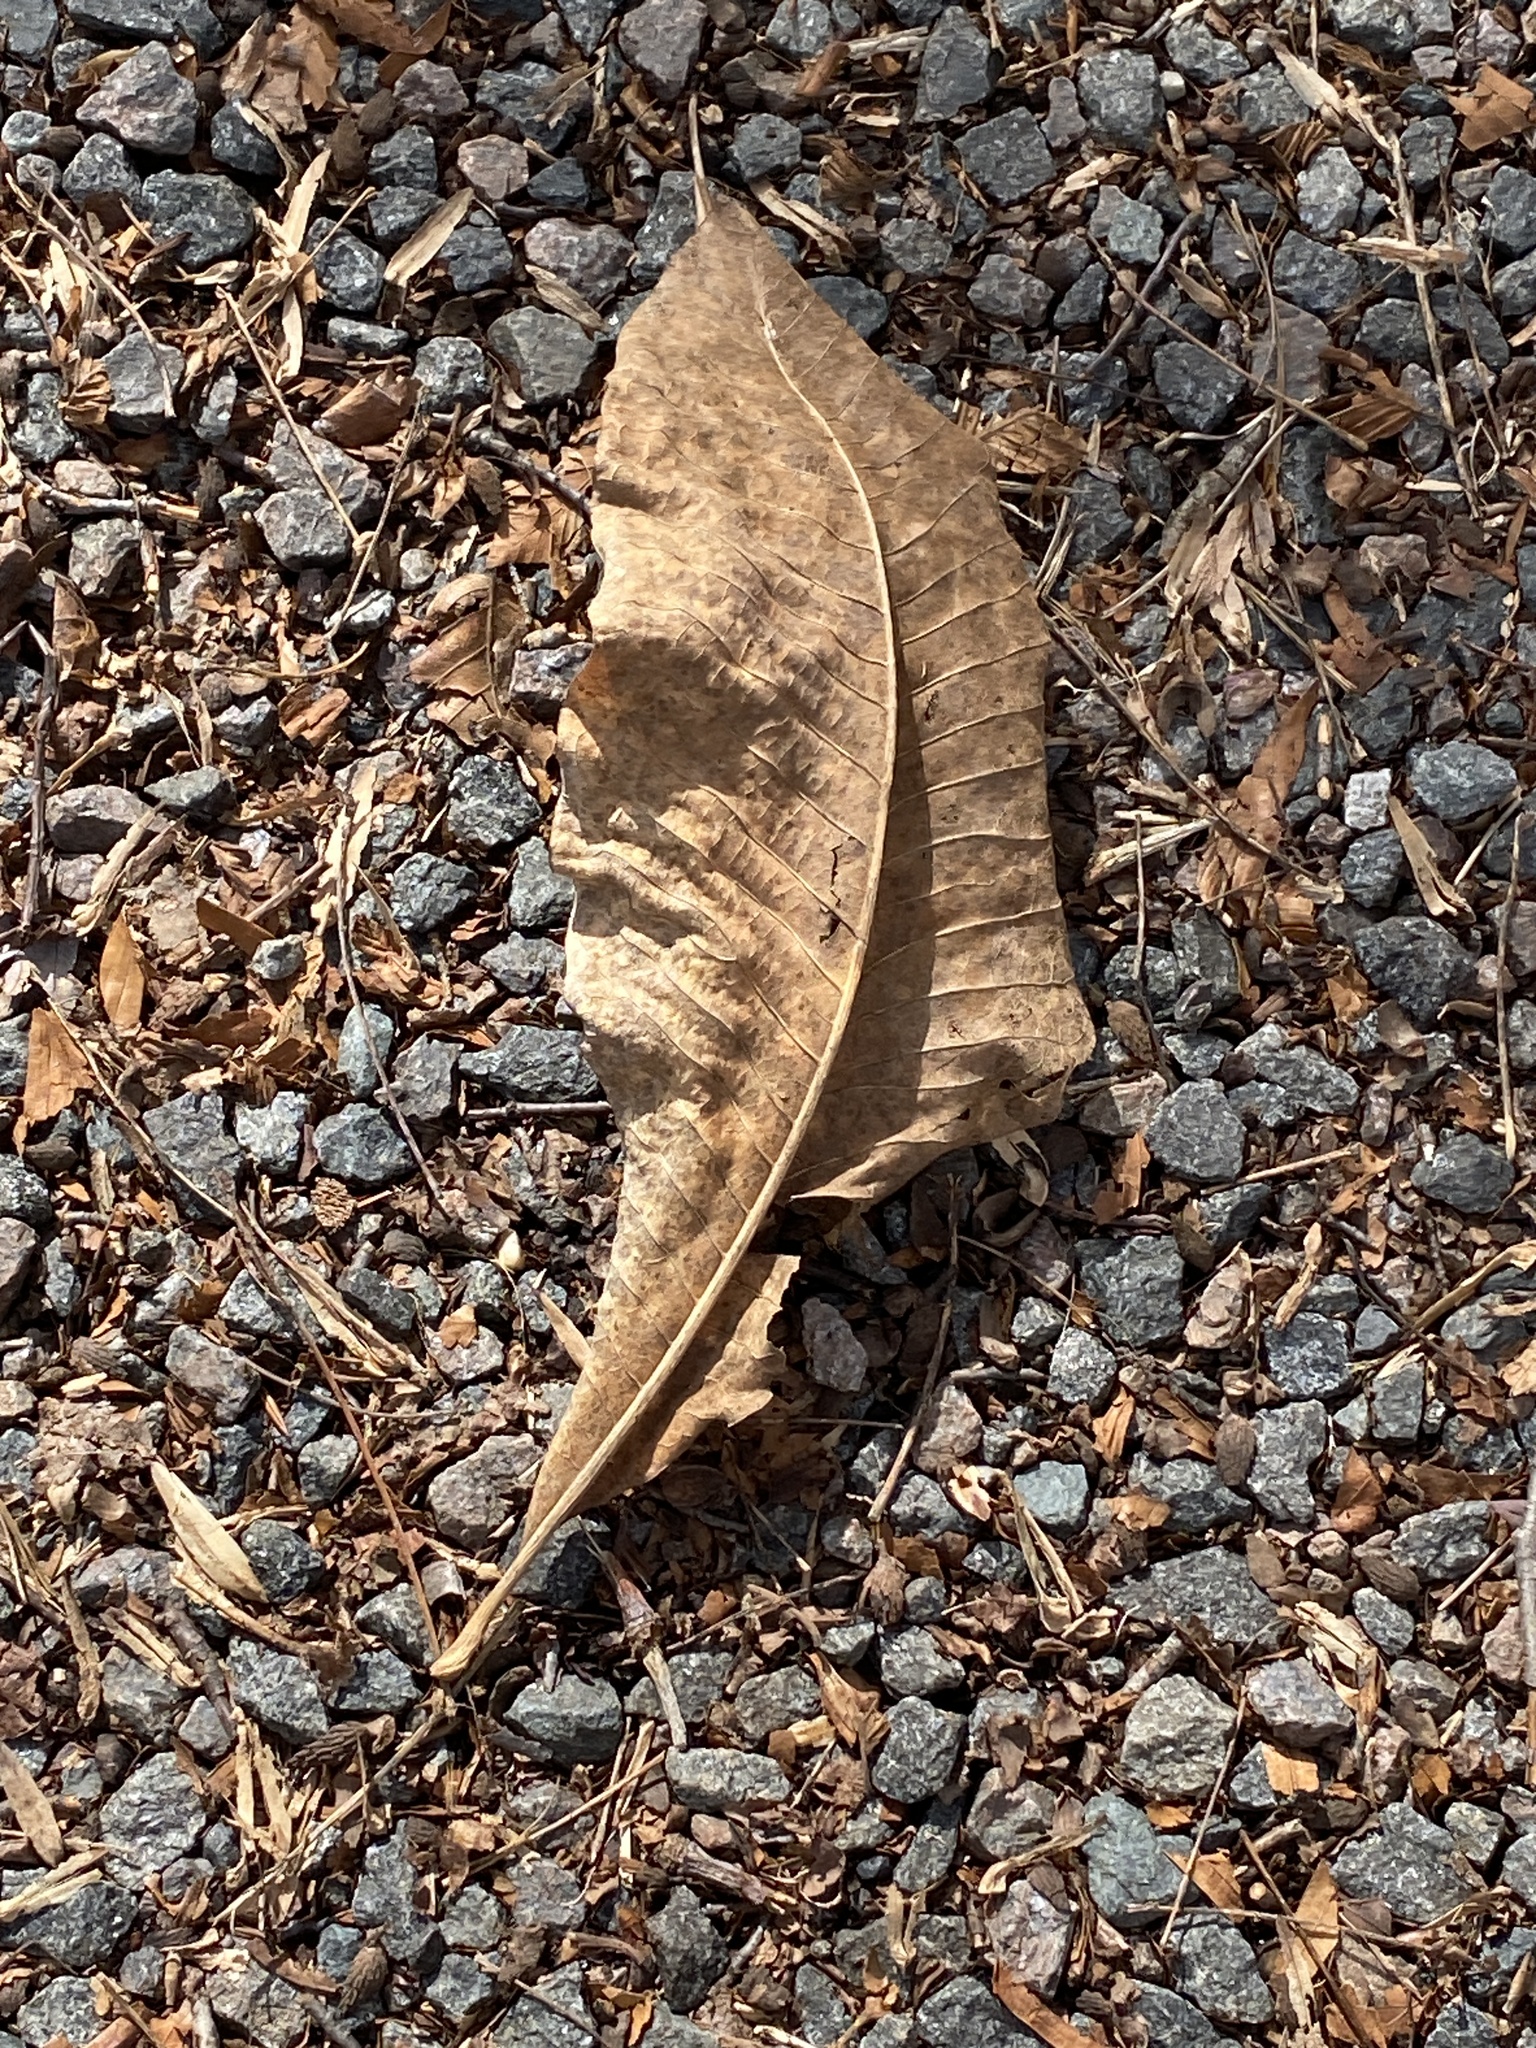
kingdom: Plantae
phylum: Tracheophyta
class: Magnoliopsida
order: Magnoliales
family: Magnoliaceae
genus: Magnolia
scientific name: Magnolia tripetala
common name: Umbrella magnolia
